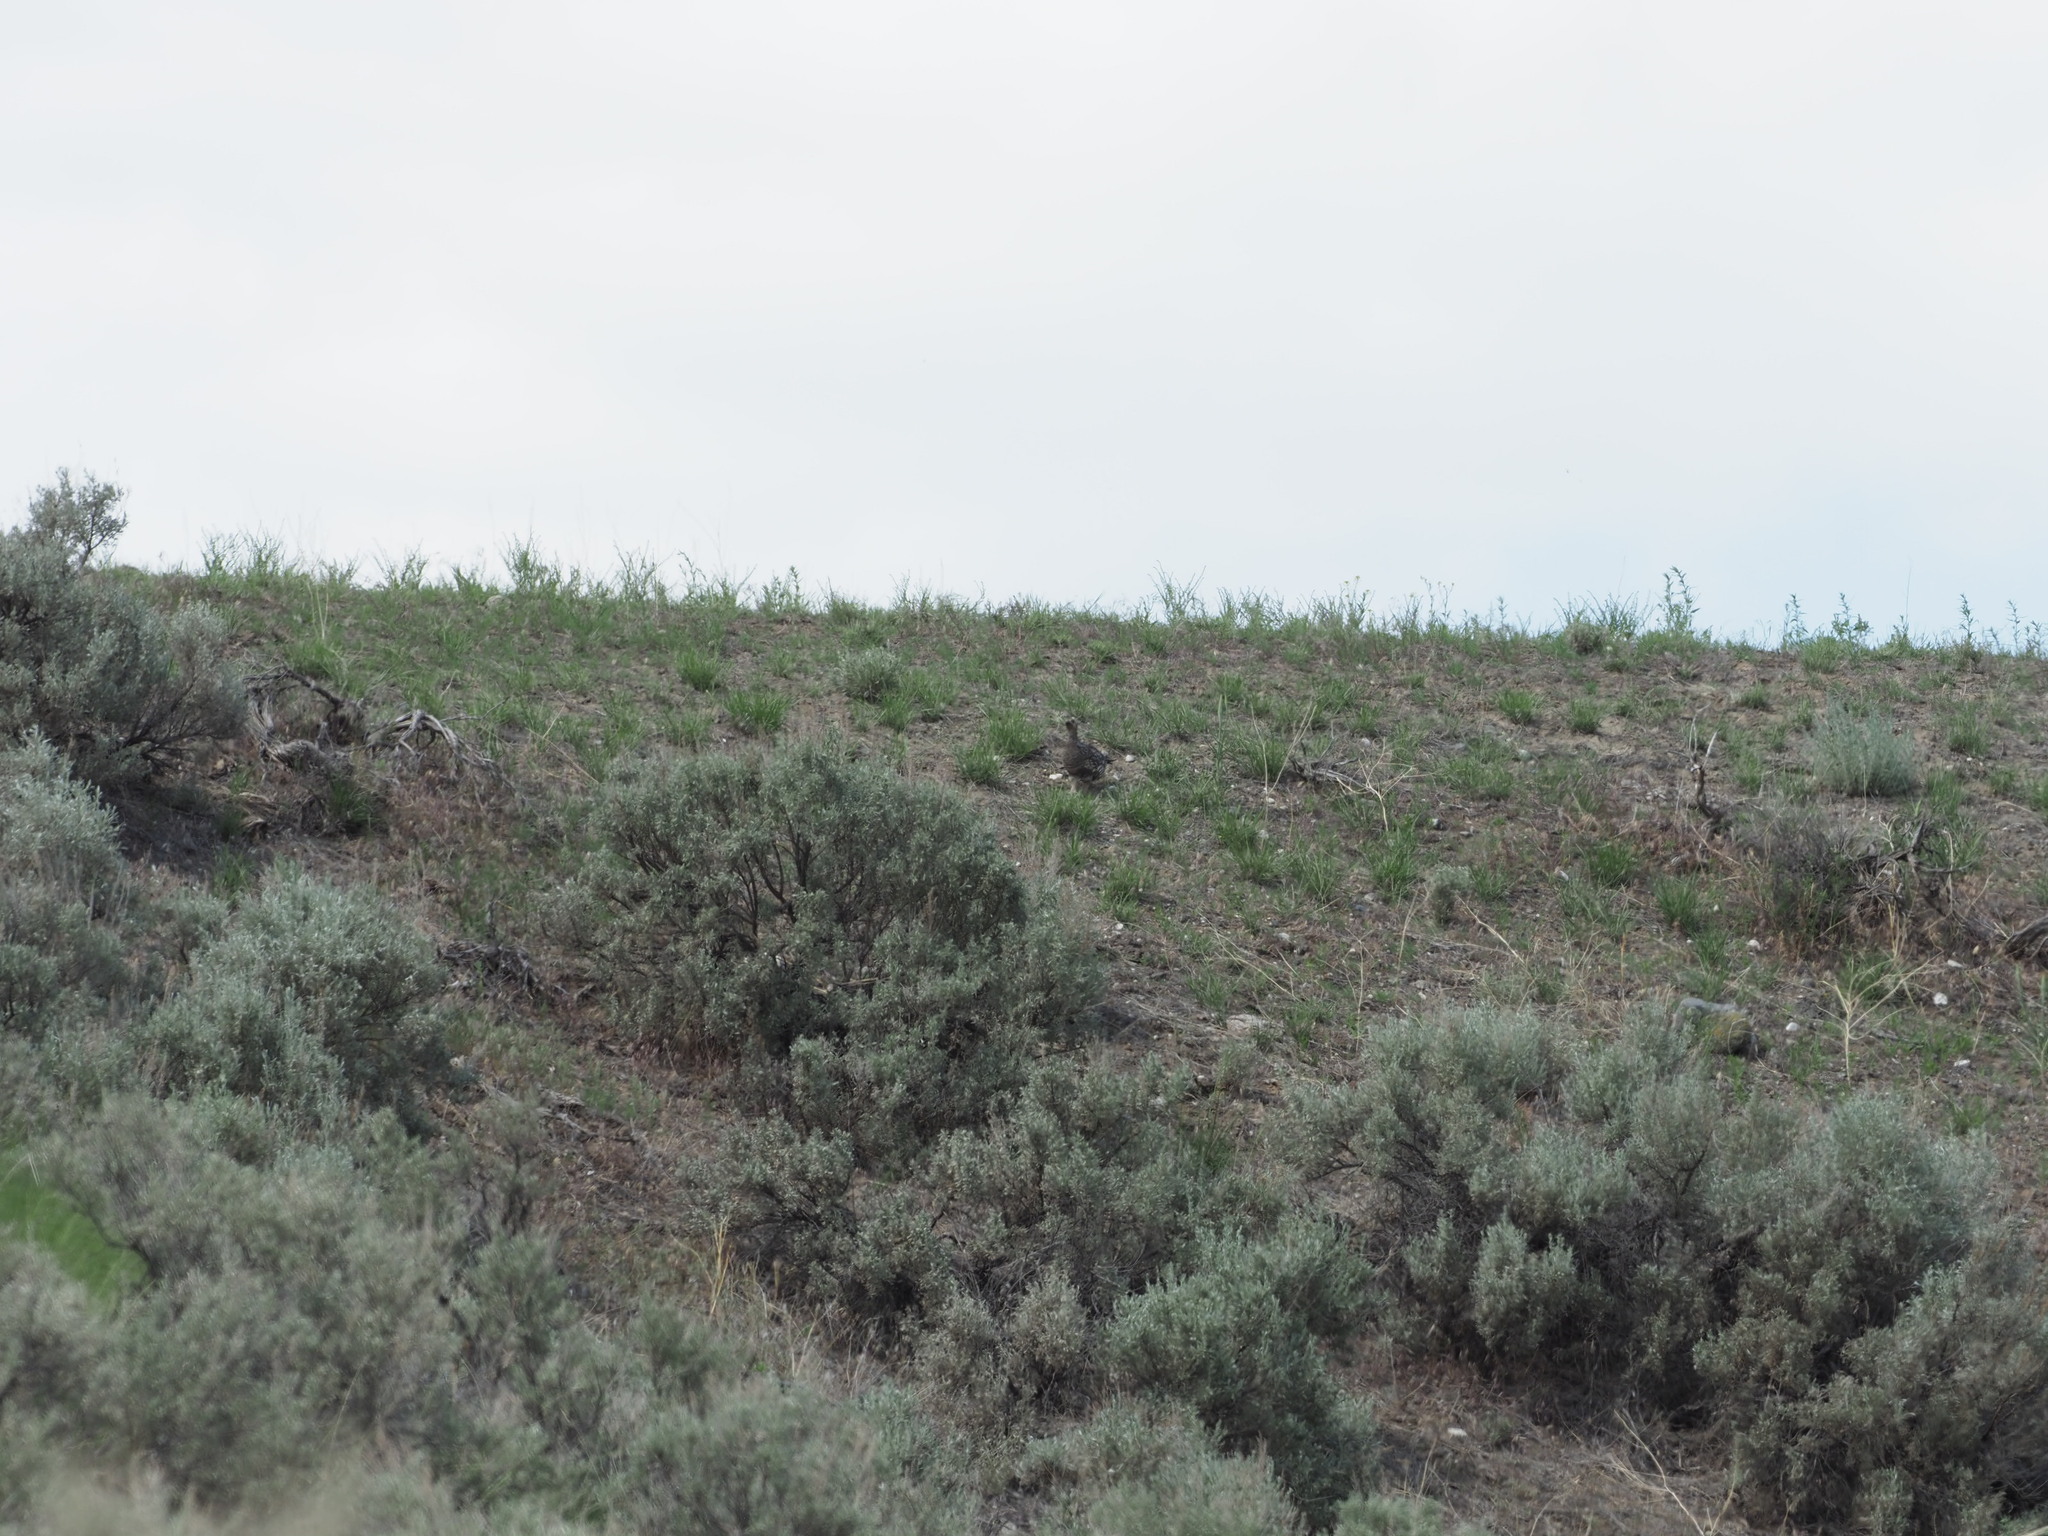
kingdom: Animalia
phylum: Chordata
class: Aves
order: Galliformes
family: Phasianidae
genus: Dendragapus
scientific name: Dendragapus obscurus
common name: Dusky grouse
